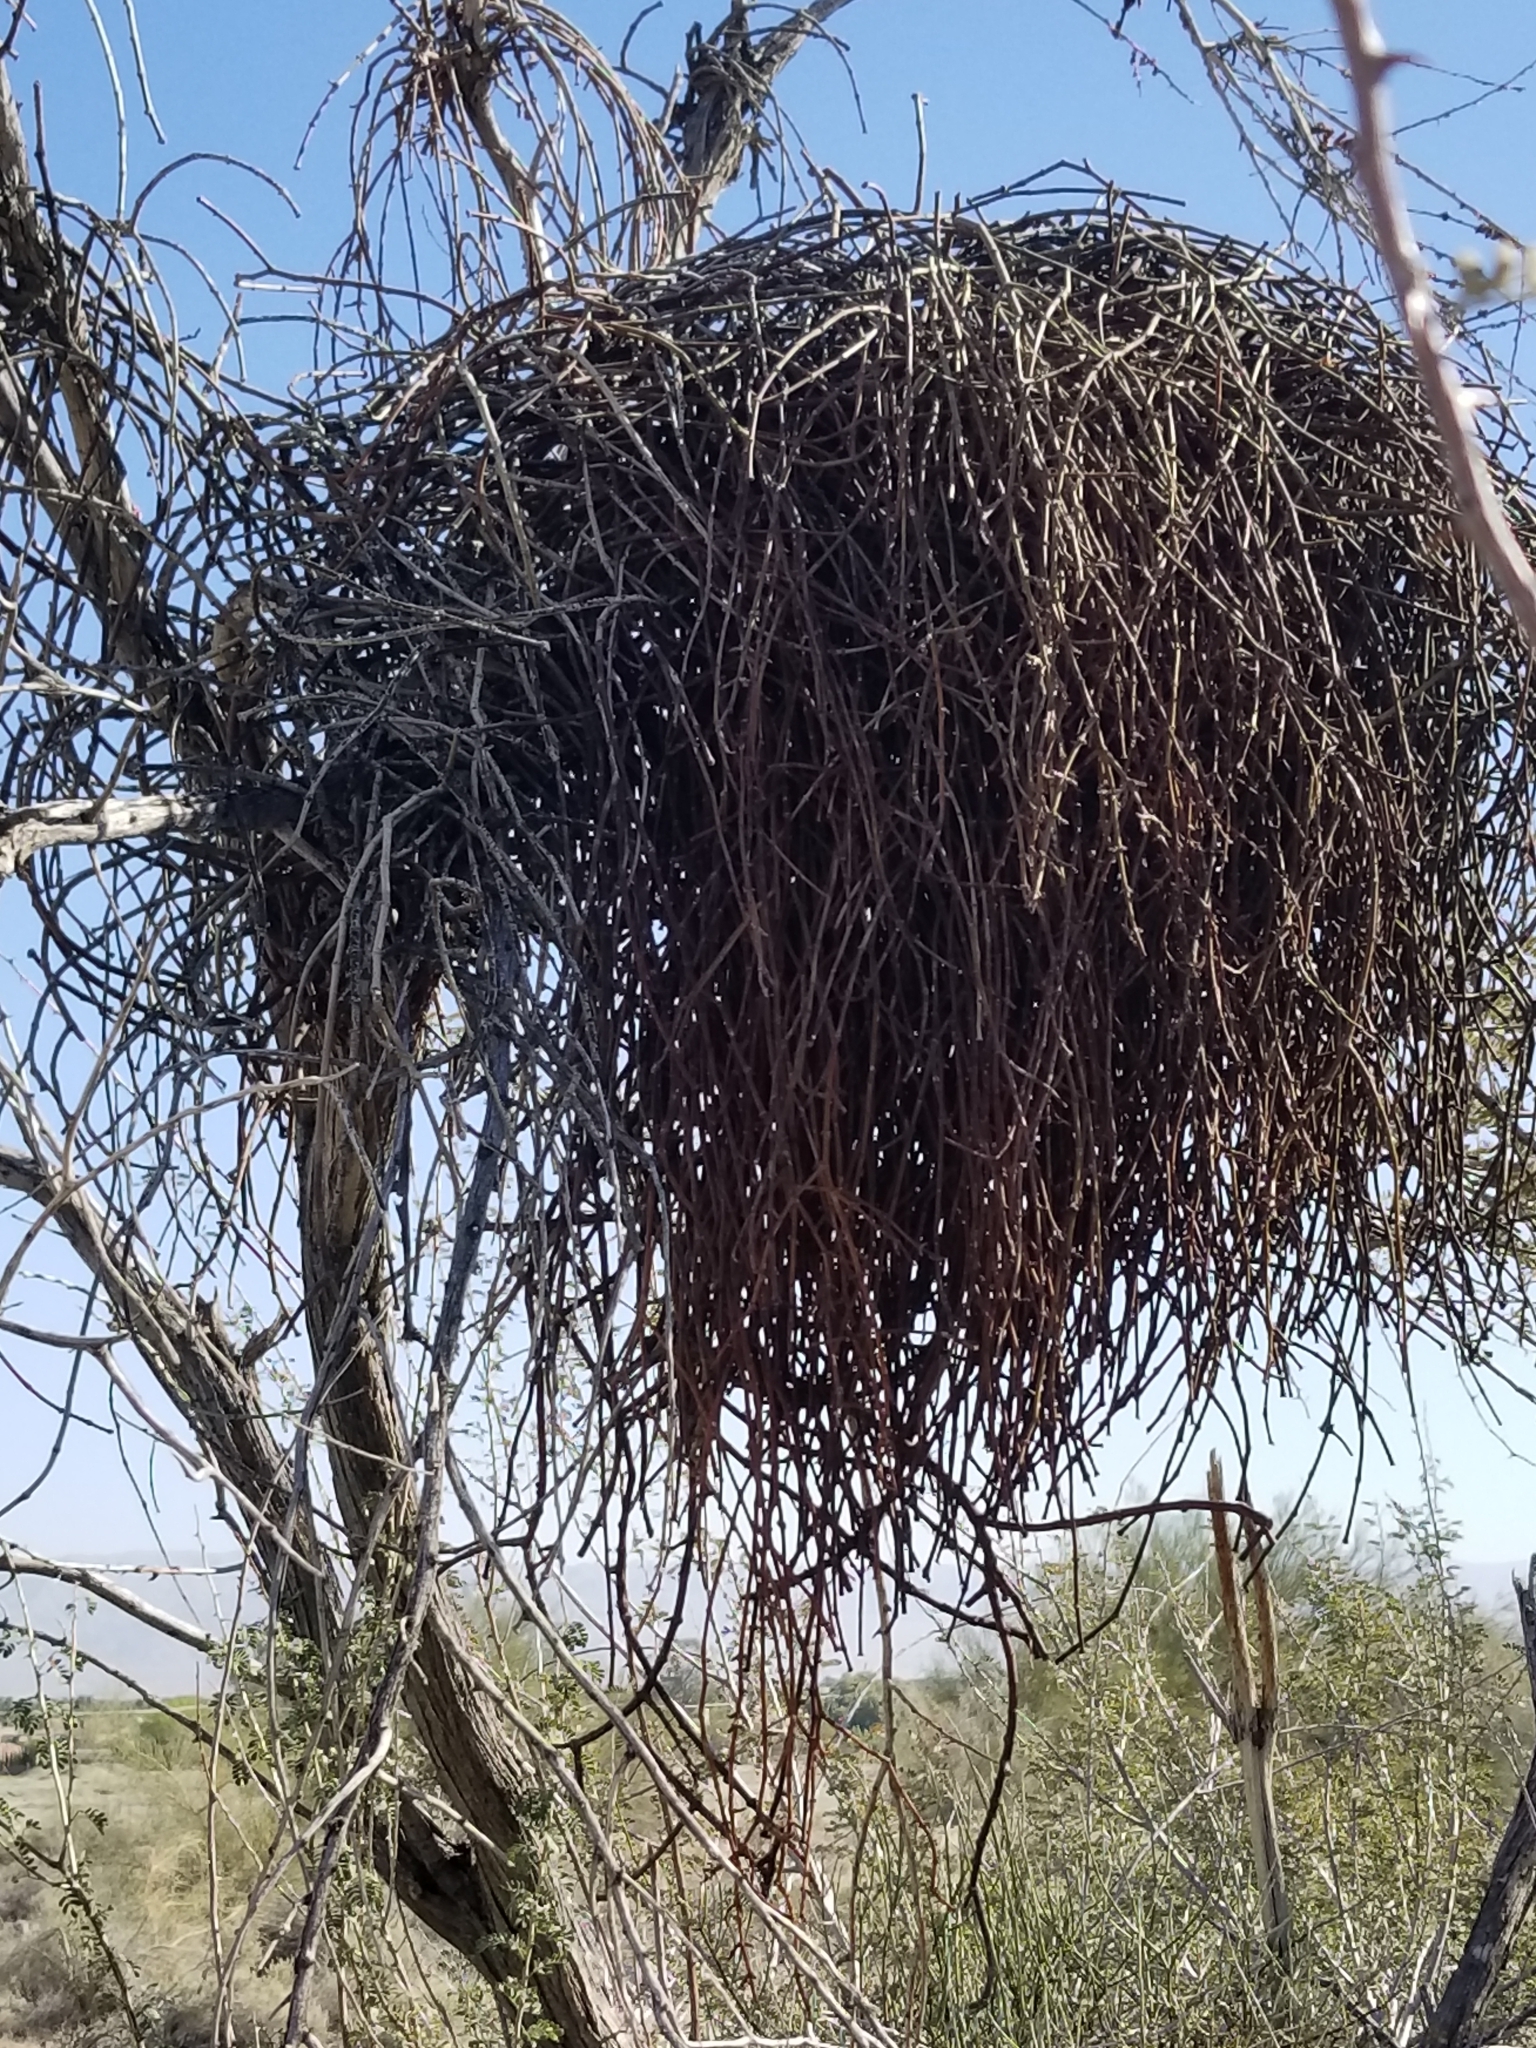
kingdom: Plantae
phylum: Tracheophyta
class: Magnoliopsida
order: Santalales
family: Viscaceae
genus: Phoradendron
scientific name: Phoradendron californicum
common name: Acacia mistletoe
